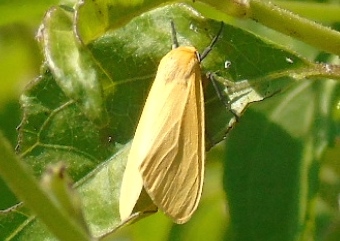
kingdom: Animalia
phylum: Arthropoda
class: Insecta
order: Lepidoptera
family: Erebidae
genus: Arctiinae
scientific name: Arctiinae
